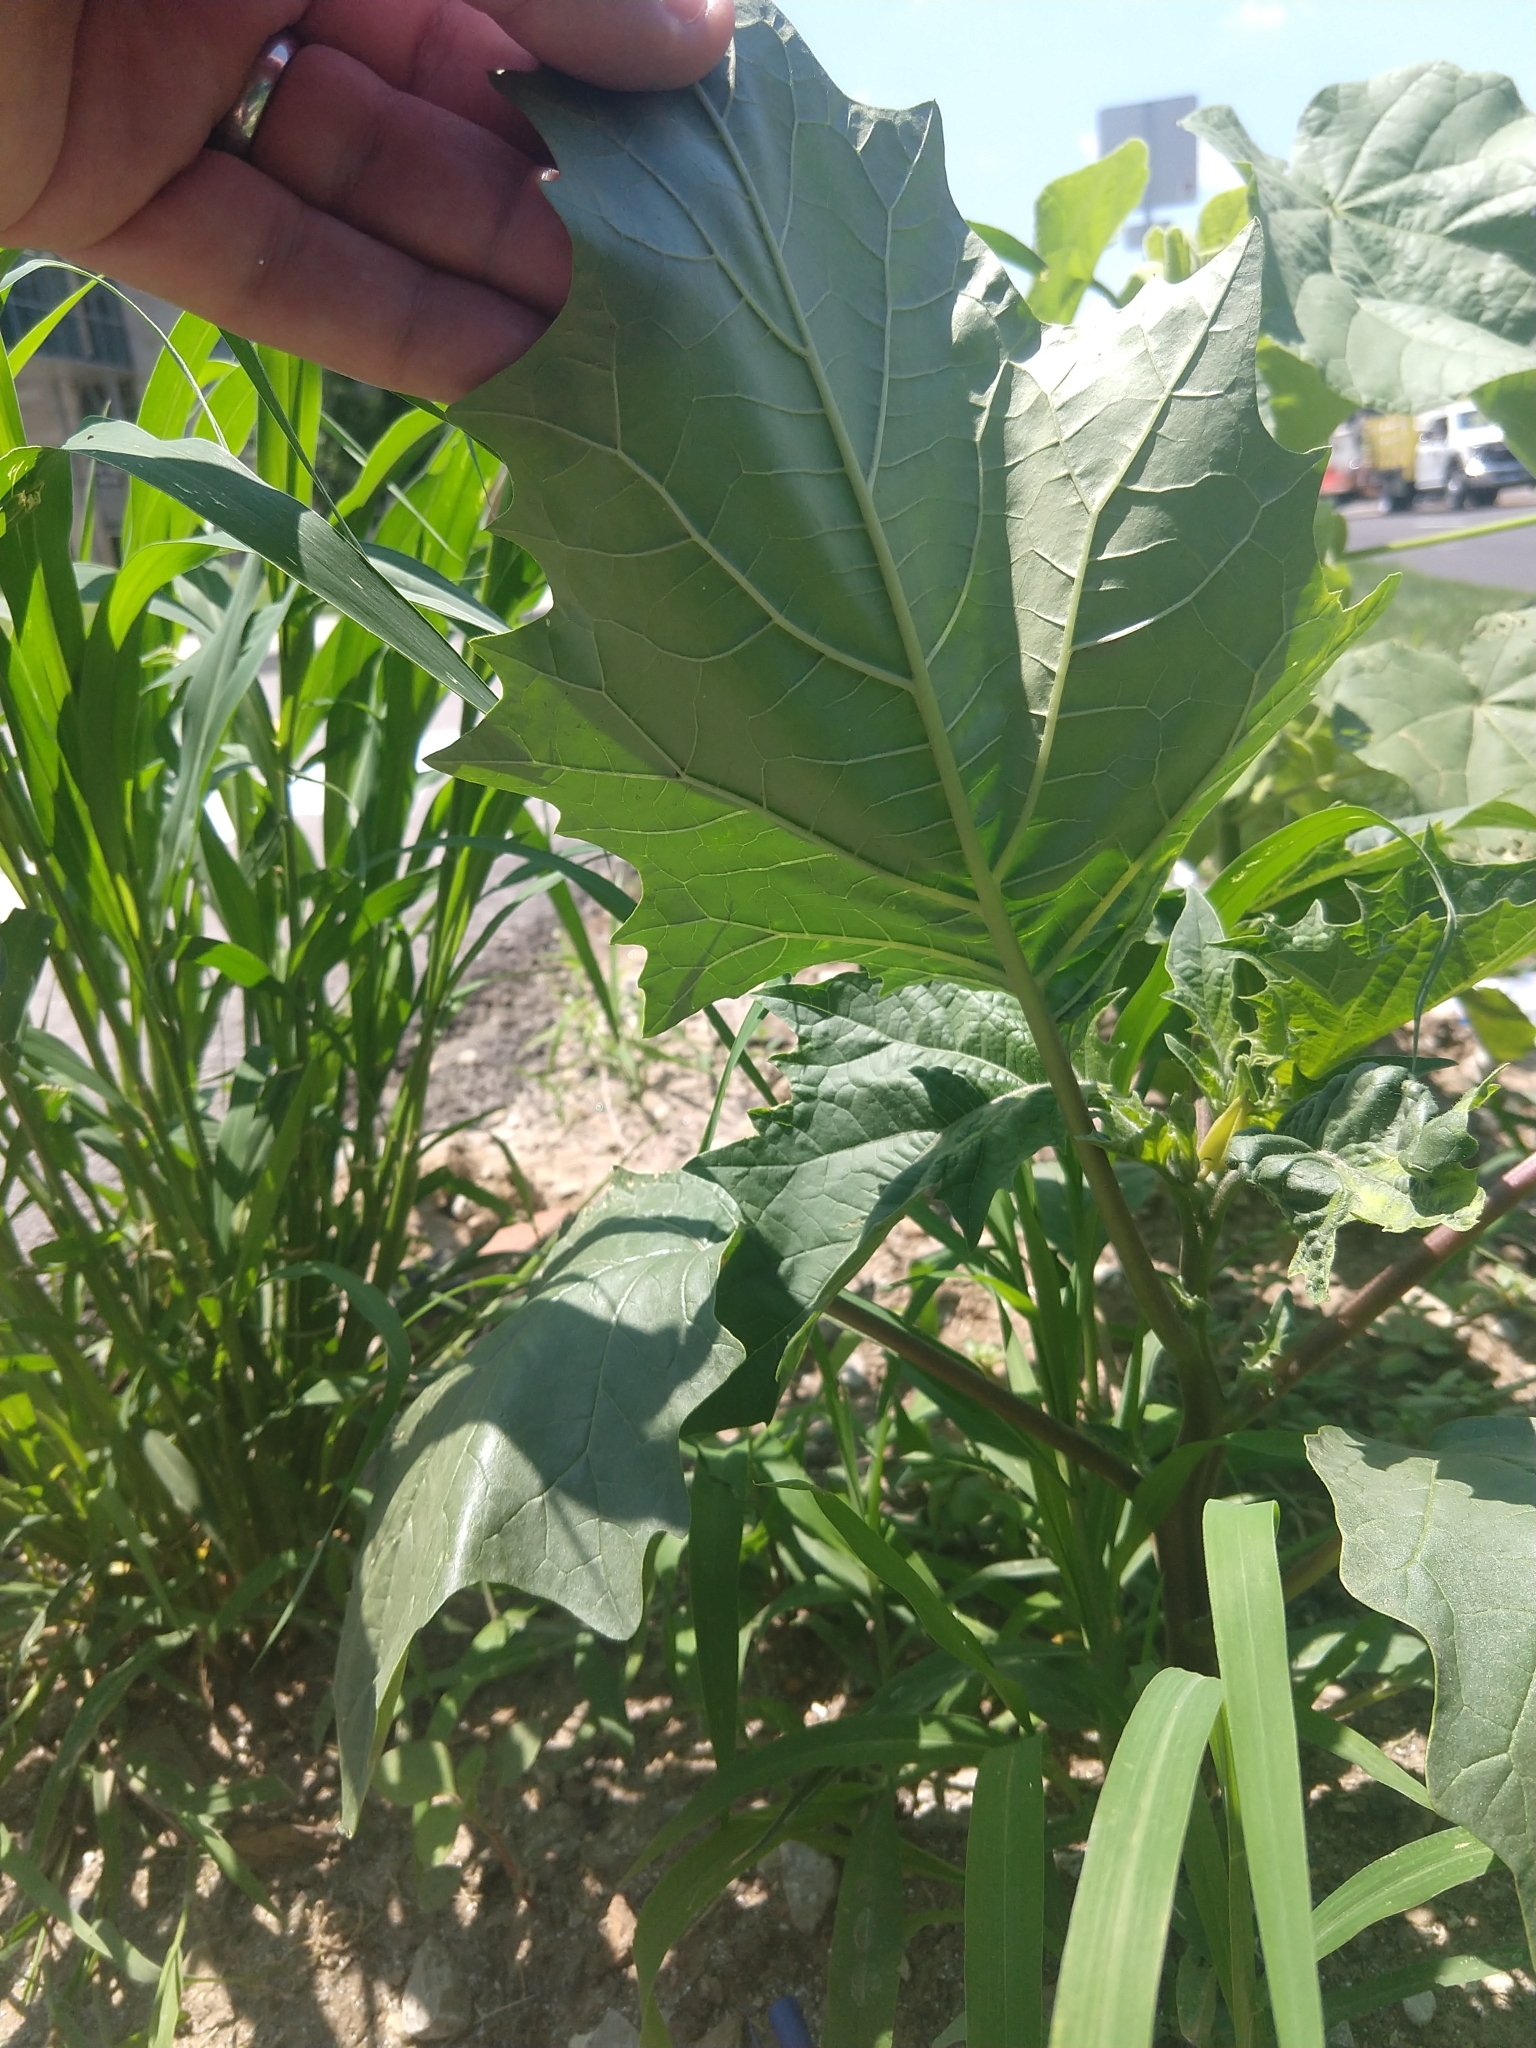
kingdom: Plantae
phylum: Tracheophyta
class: Magnoliopsida
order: Solanales
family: Solanaceae
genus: Datura
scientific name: Datura stramonium
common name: Thorn-apple
